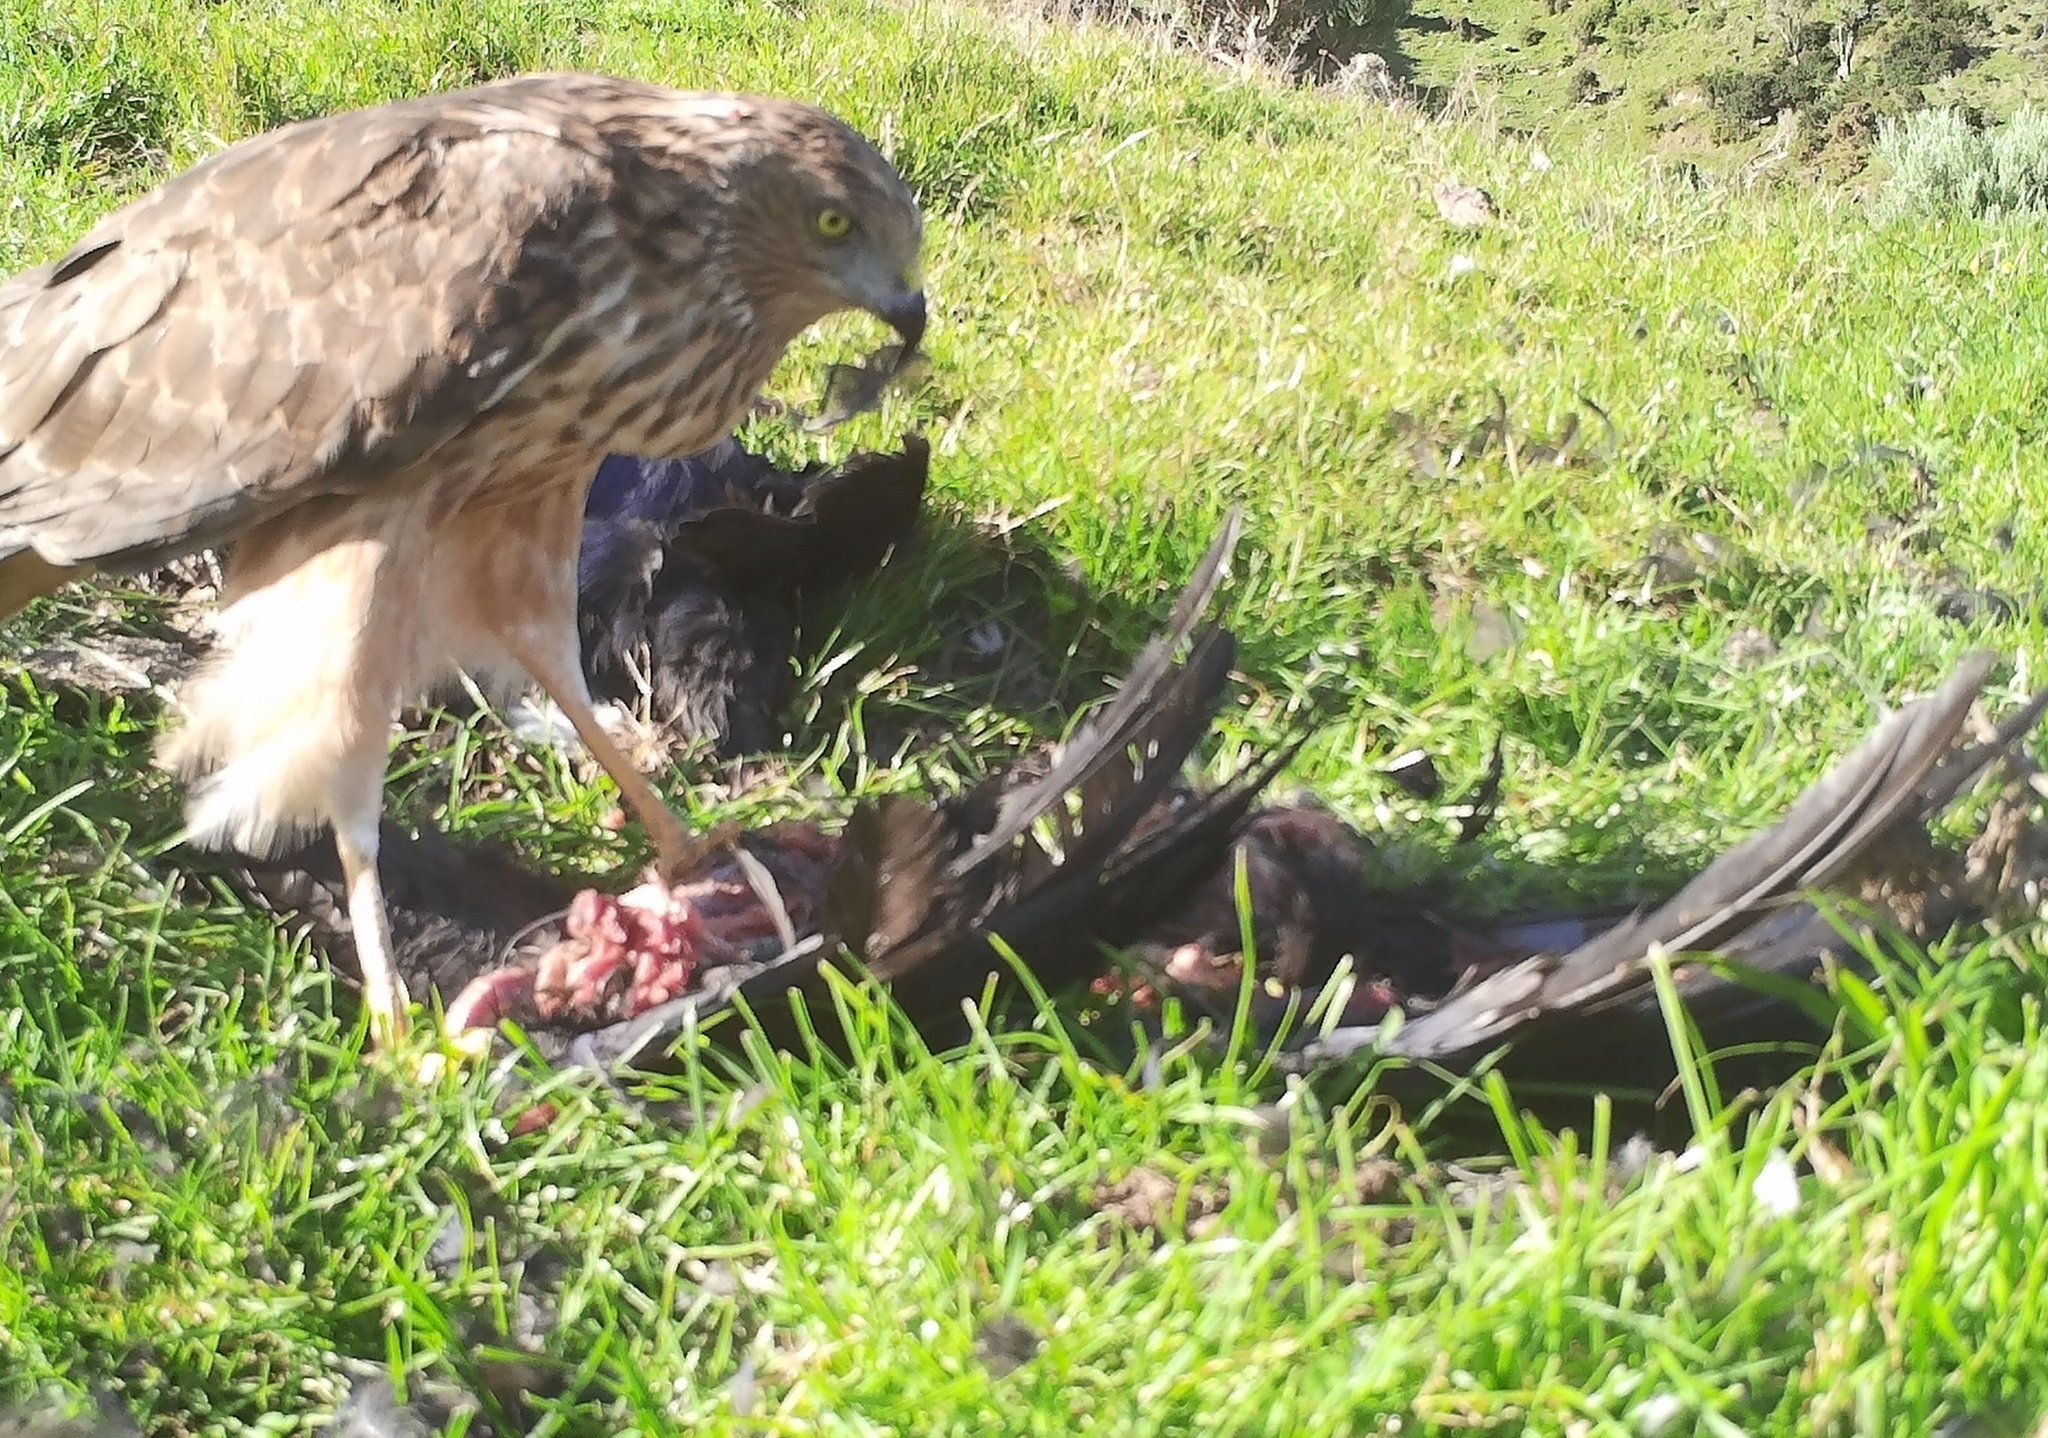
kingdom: Animalia
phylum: Chordata
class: Aves
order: Accipitriformes
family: Accipitridae
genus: Circus
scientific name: Circus approximans
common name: Swamp harrier
